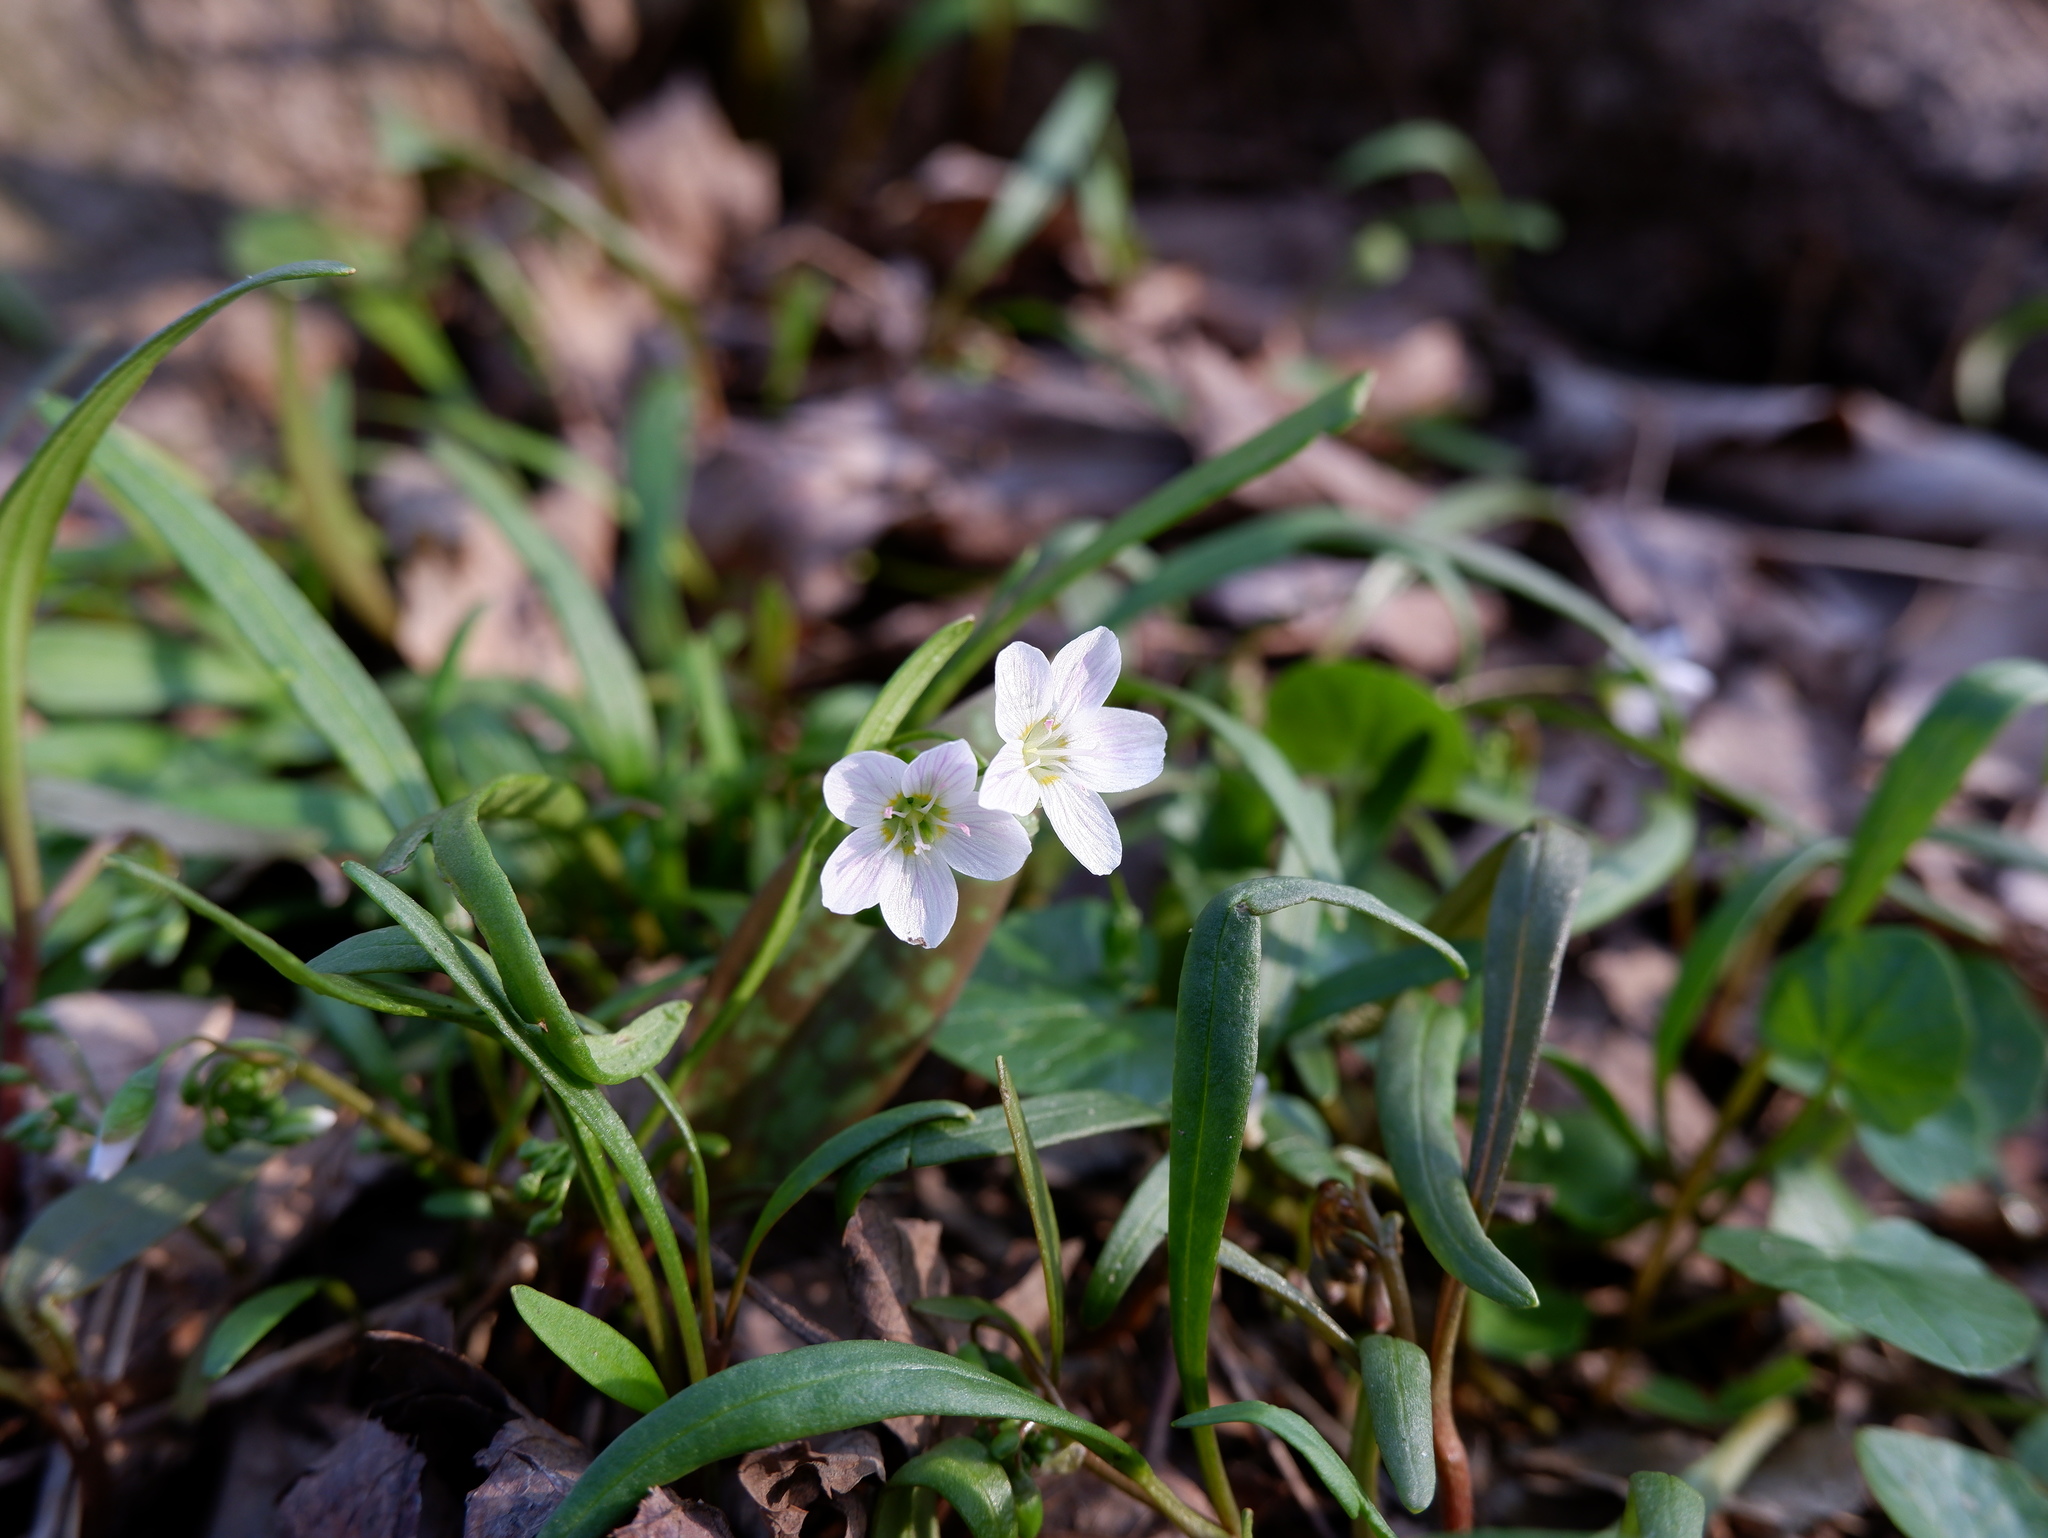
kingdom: Plantae
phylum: Tracheophyta
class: Magnoliopsida
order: Caryophyllales
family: Montiaceae
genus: Claytonia
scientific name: Claytonia virginica
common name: Virginia springbeauty
